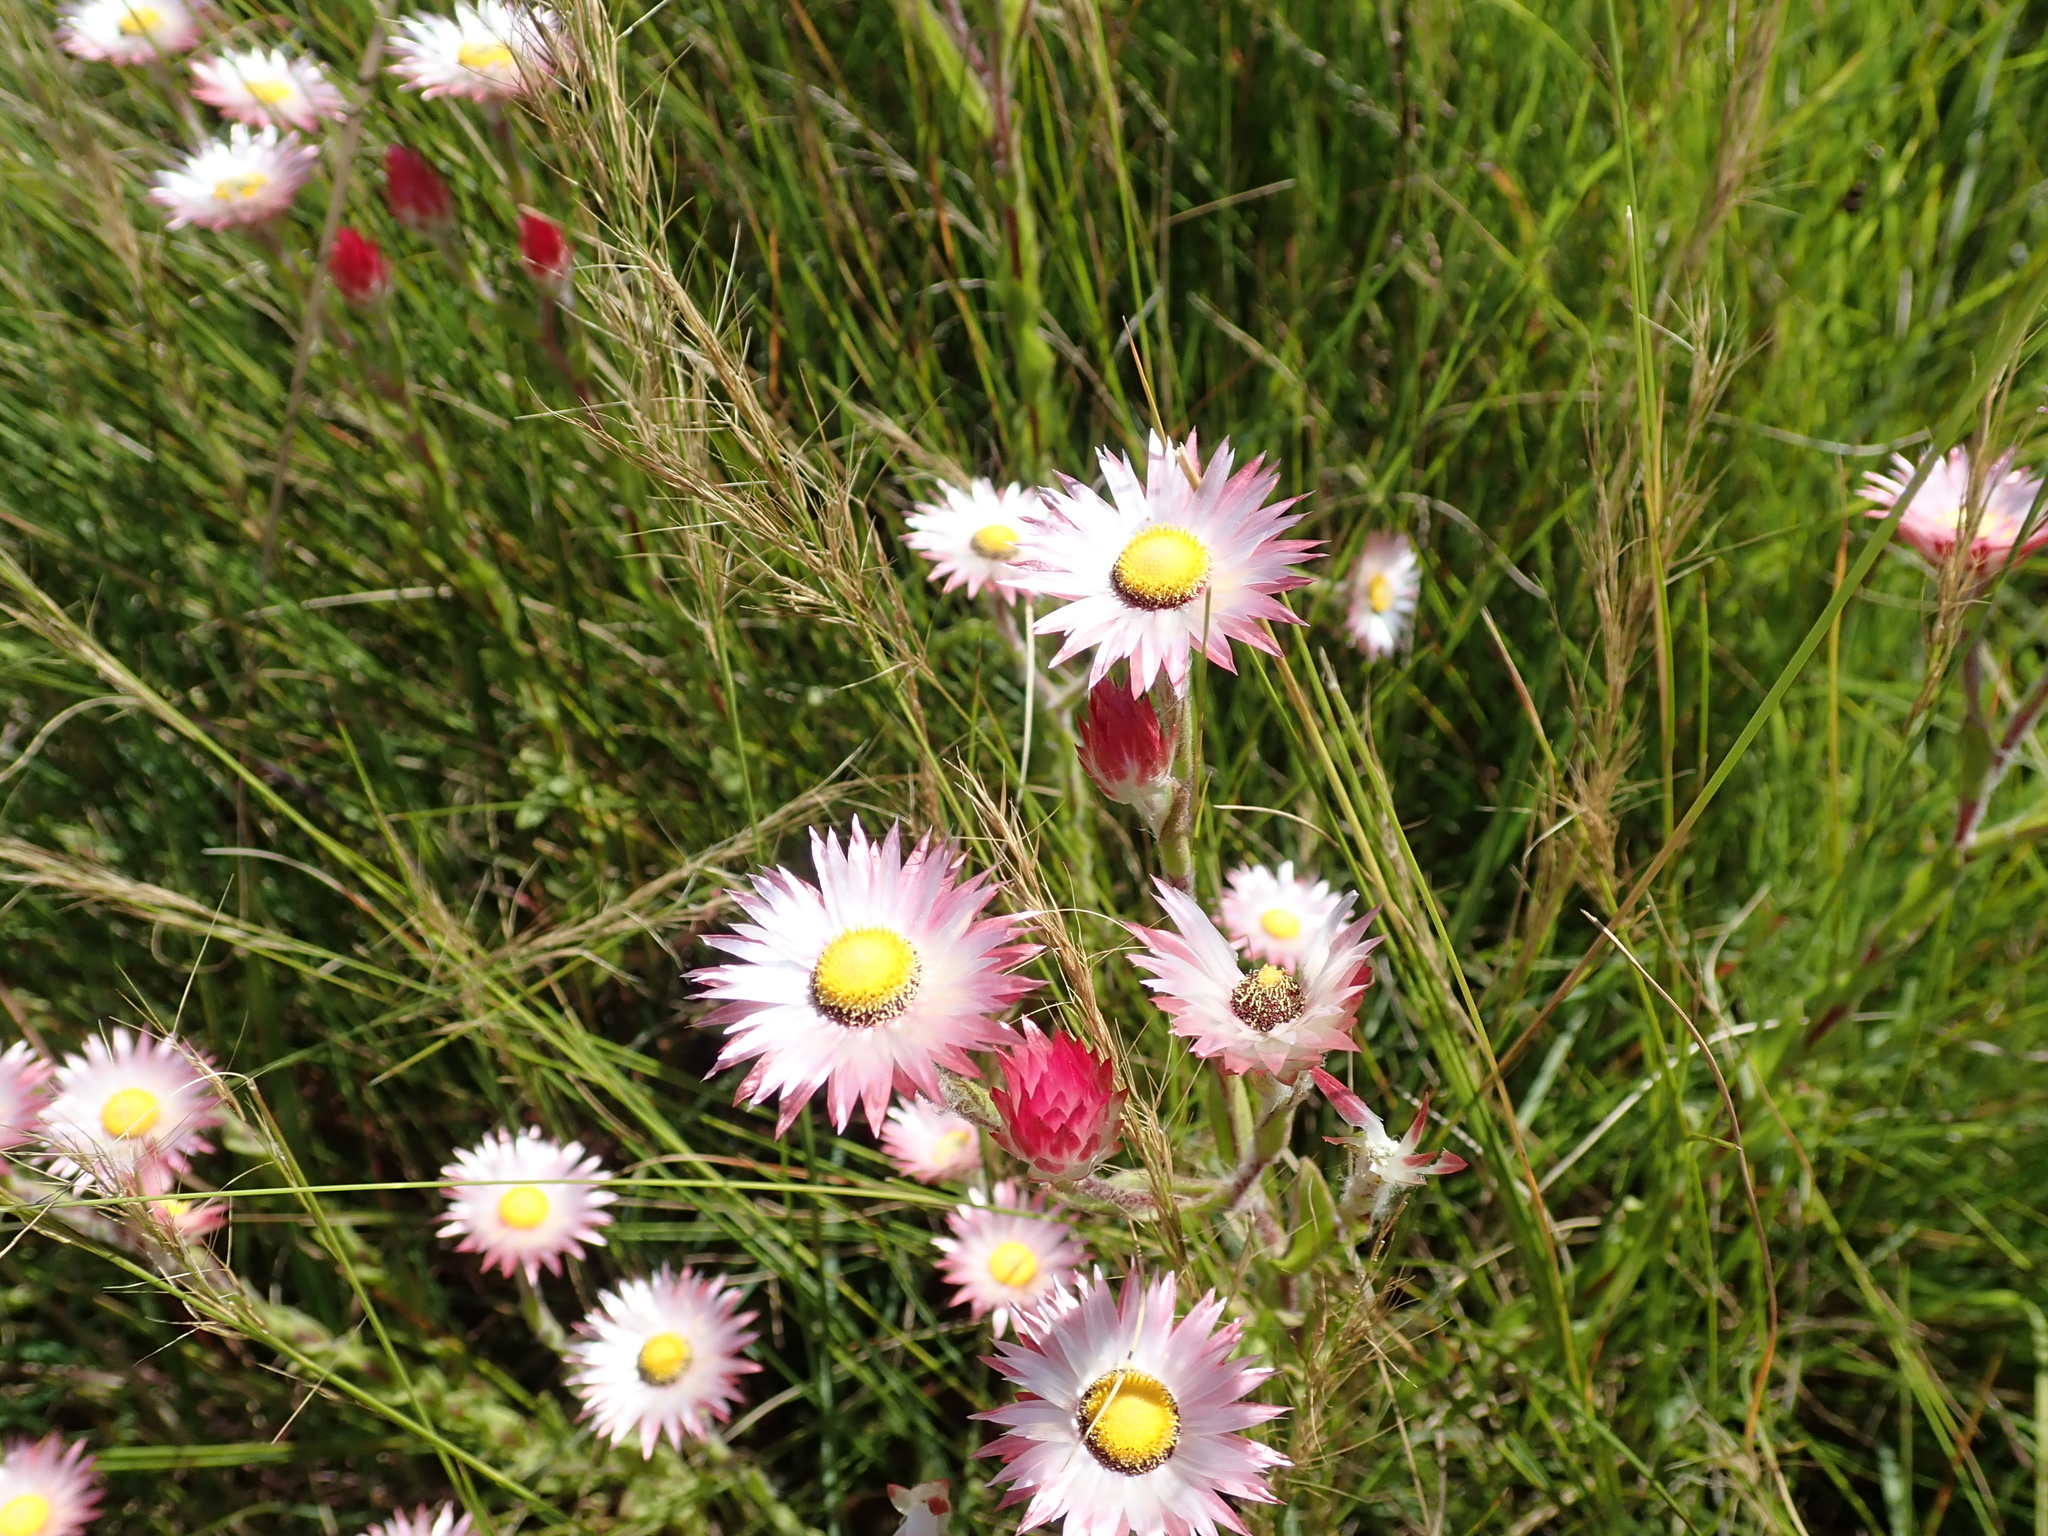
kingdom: Plantae
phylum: Tracheophyta
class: Magnoliopsida
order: Asterales
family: Asteraceae
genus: Helichrysum
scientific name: Helichrysum adenocarpum
